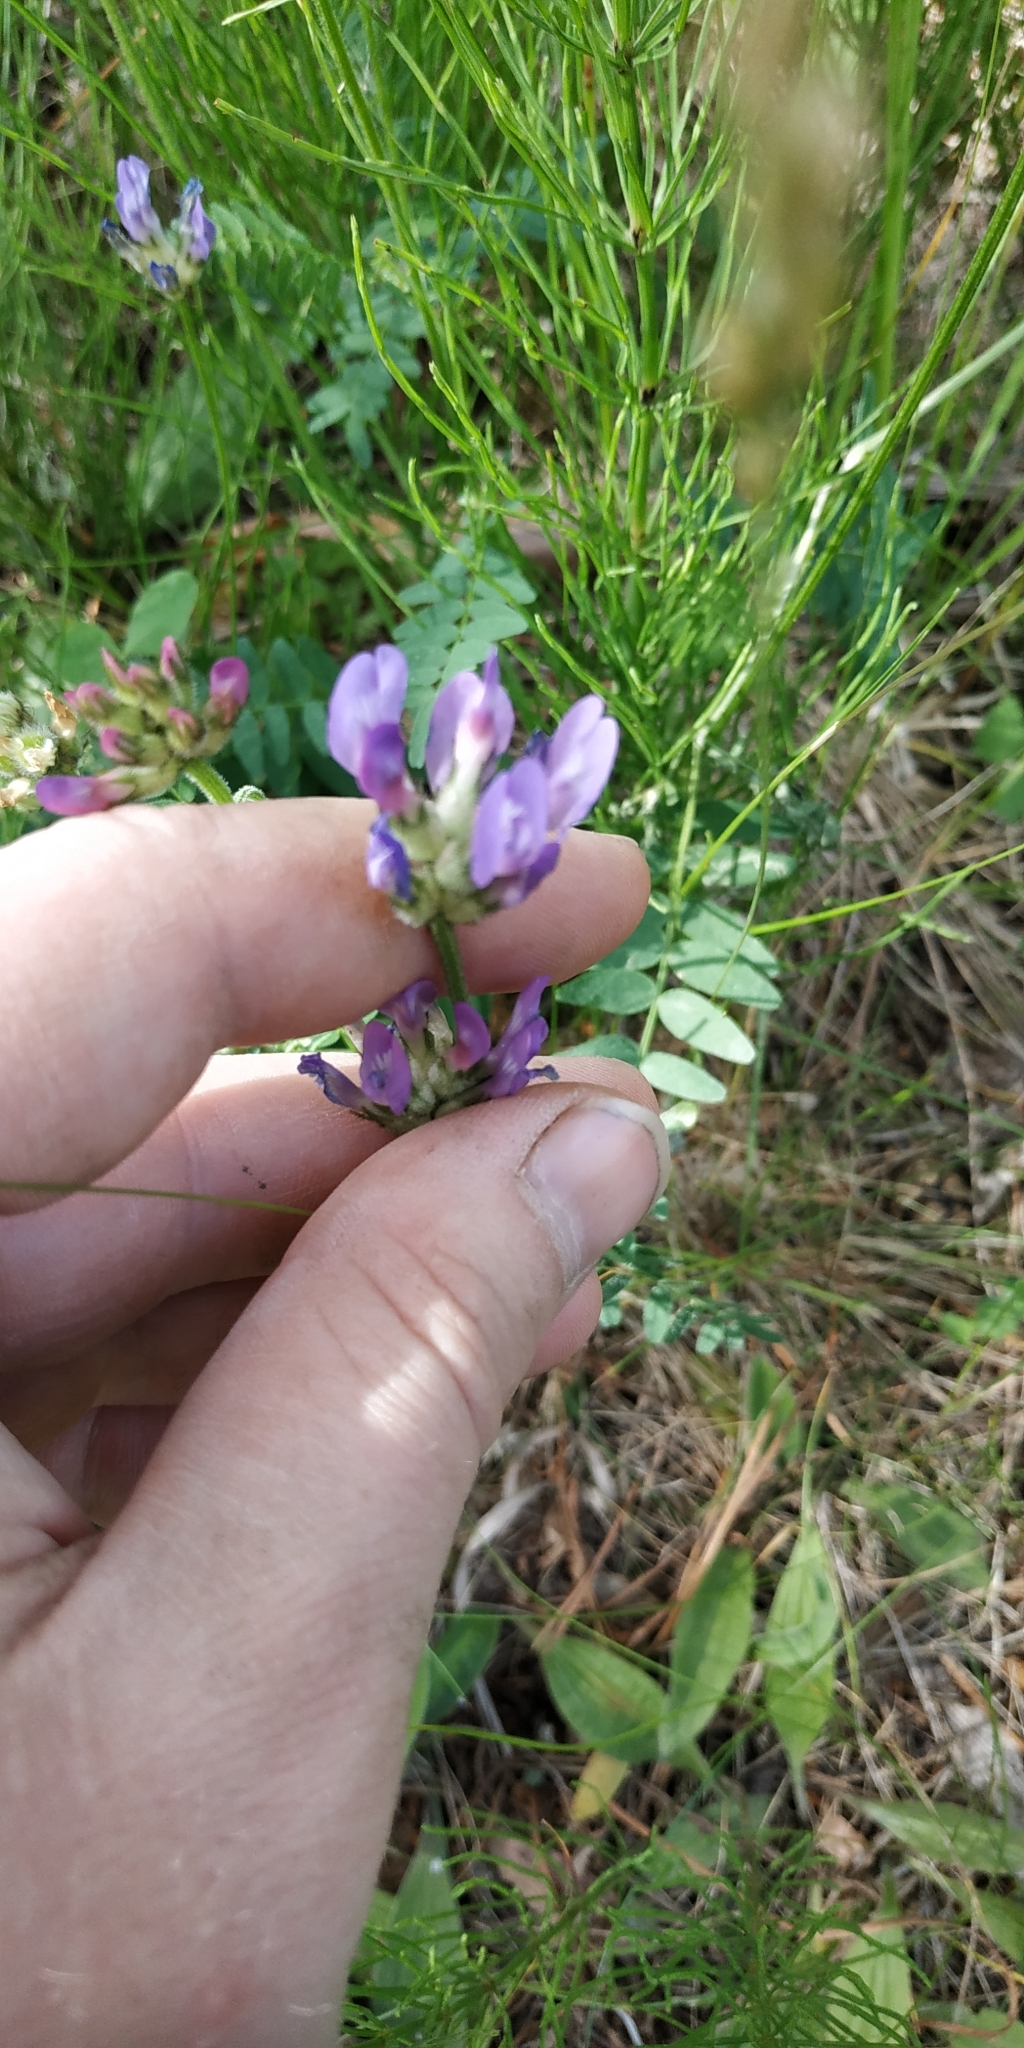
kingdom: Plantae
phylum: Tracheophyta
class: Magnoliopsida
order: Fabales
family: Fabaceae
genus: Astragalus
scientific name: Astragalus danicus
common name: Purple milk-vetch
